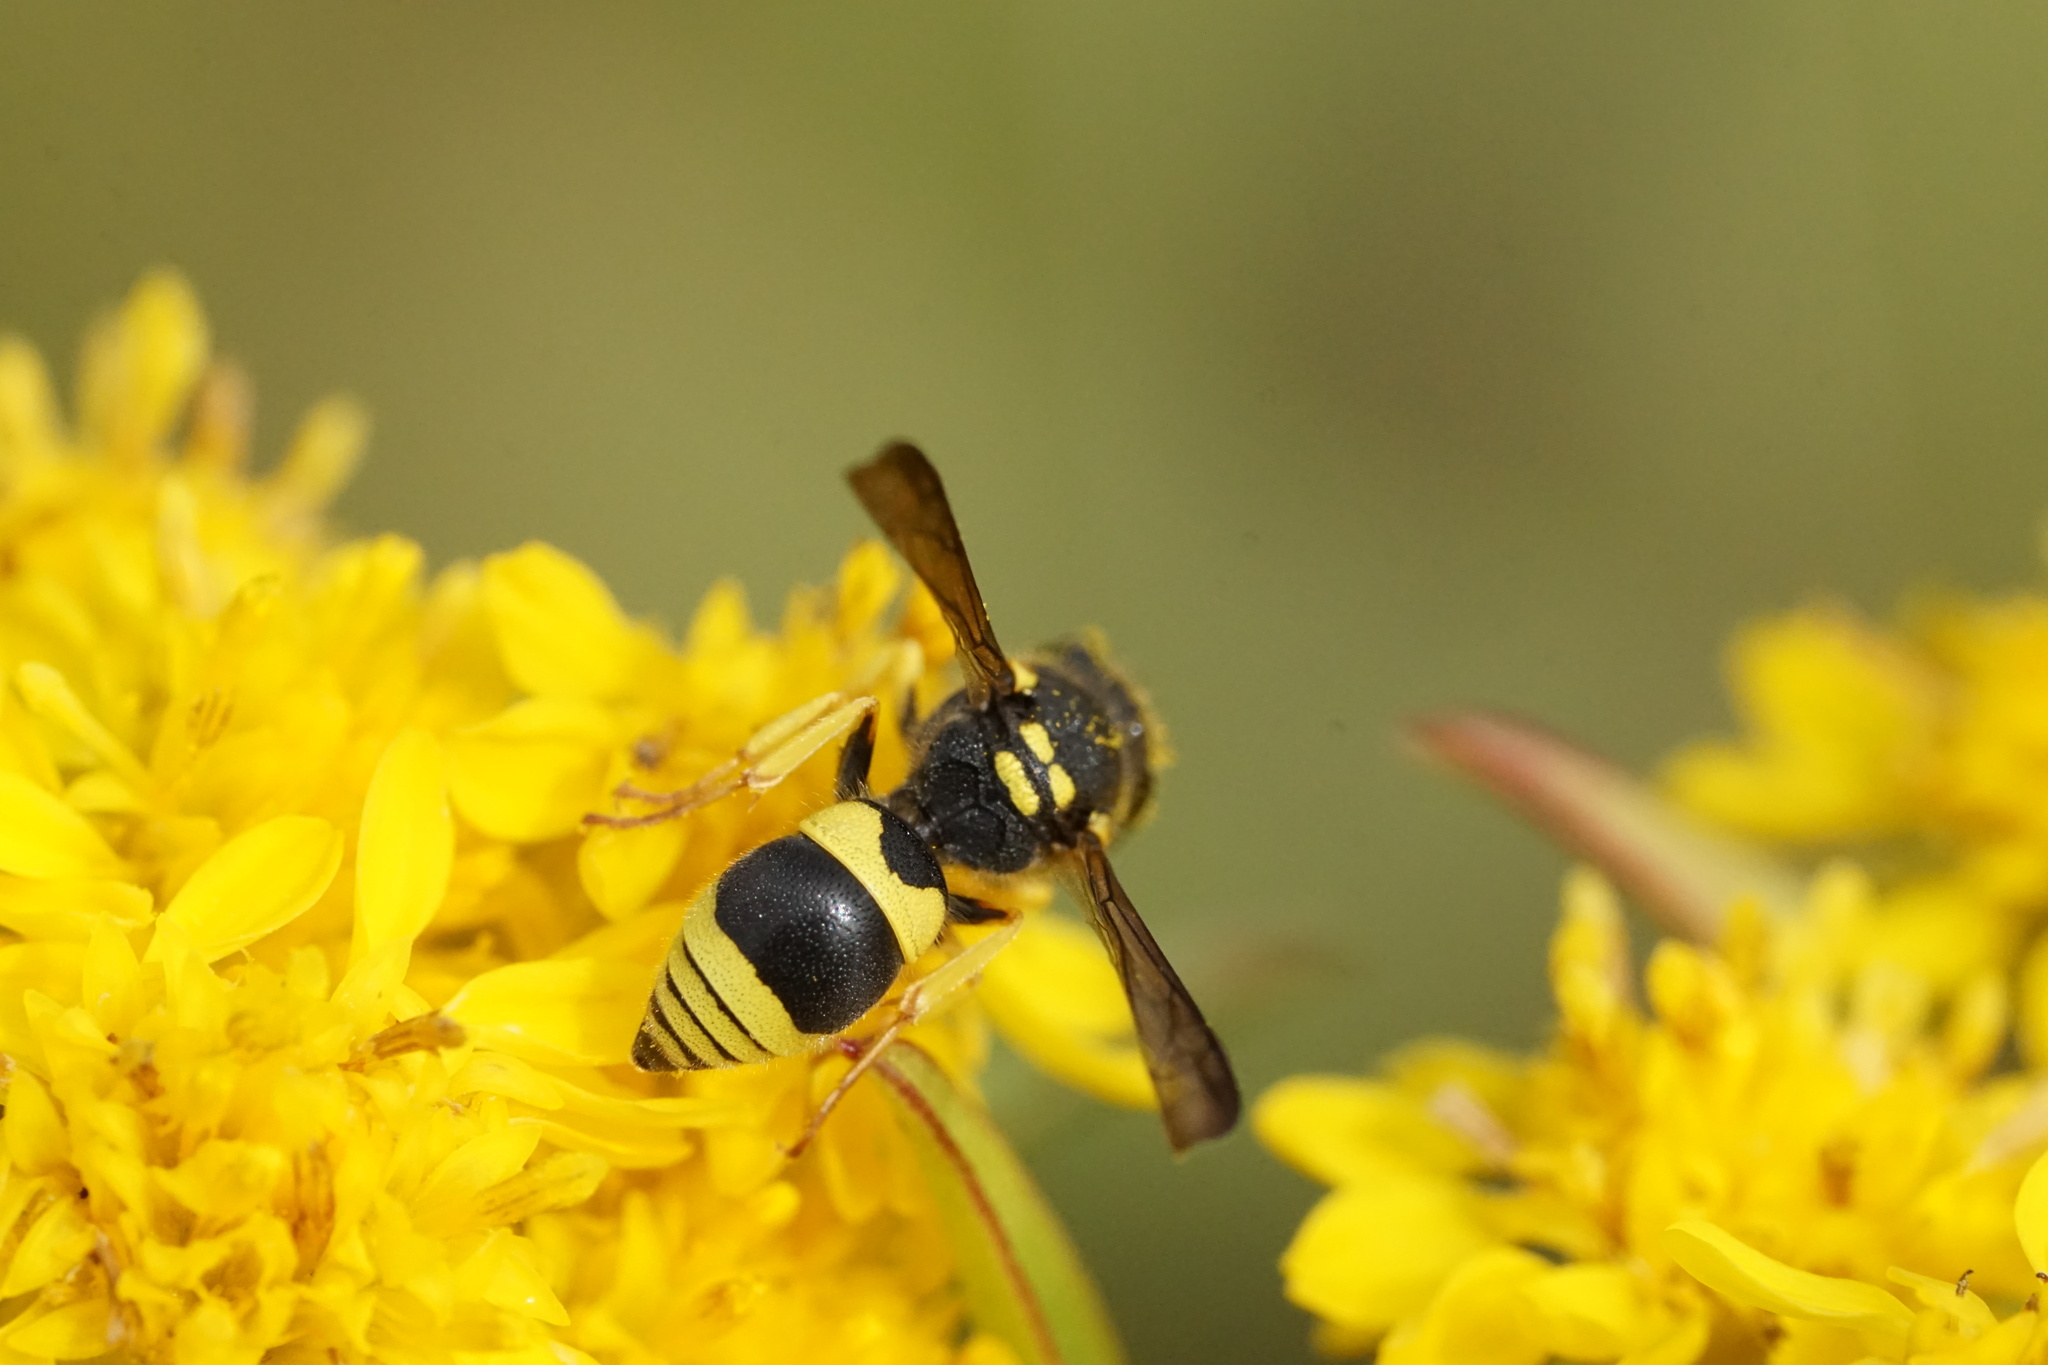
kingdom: Animalia
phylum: Arthropoda
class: Insecta
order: Hymenoptera
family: Vespidae
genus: Ancistrocerus
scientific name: Ancistrocerus gazella
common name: European tube wasp
